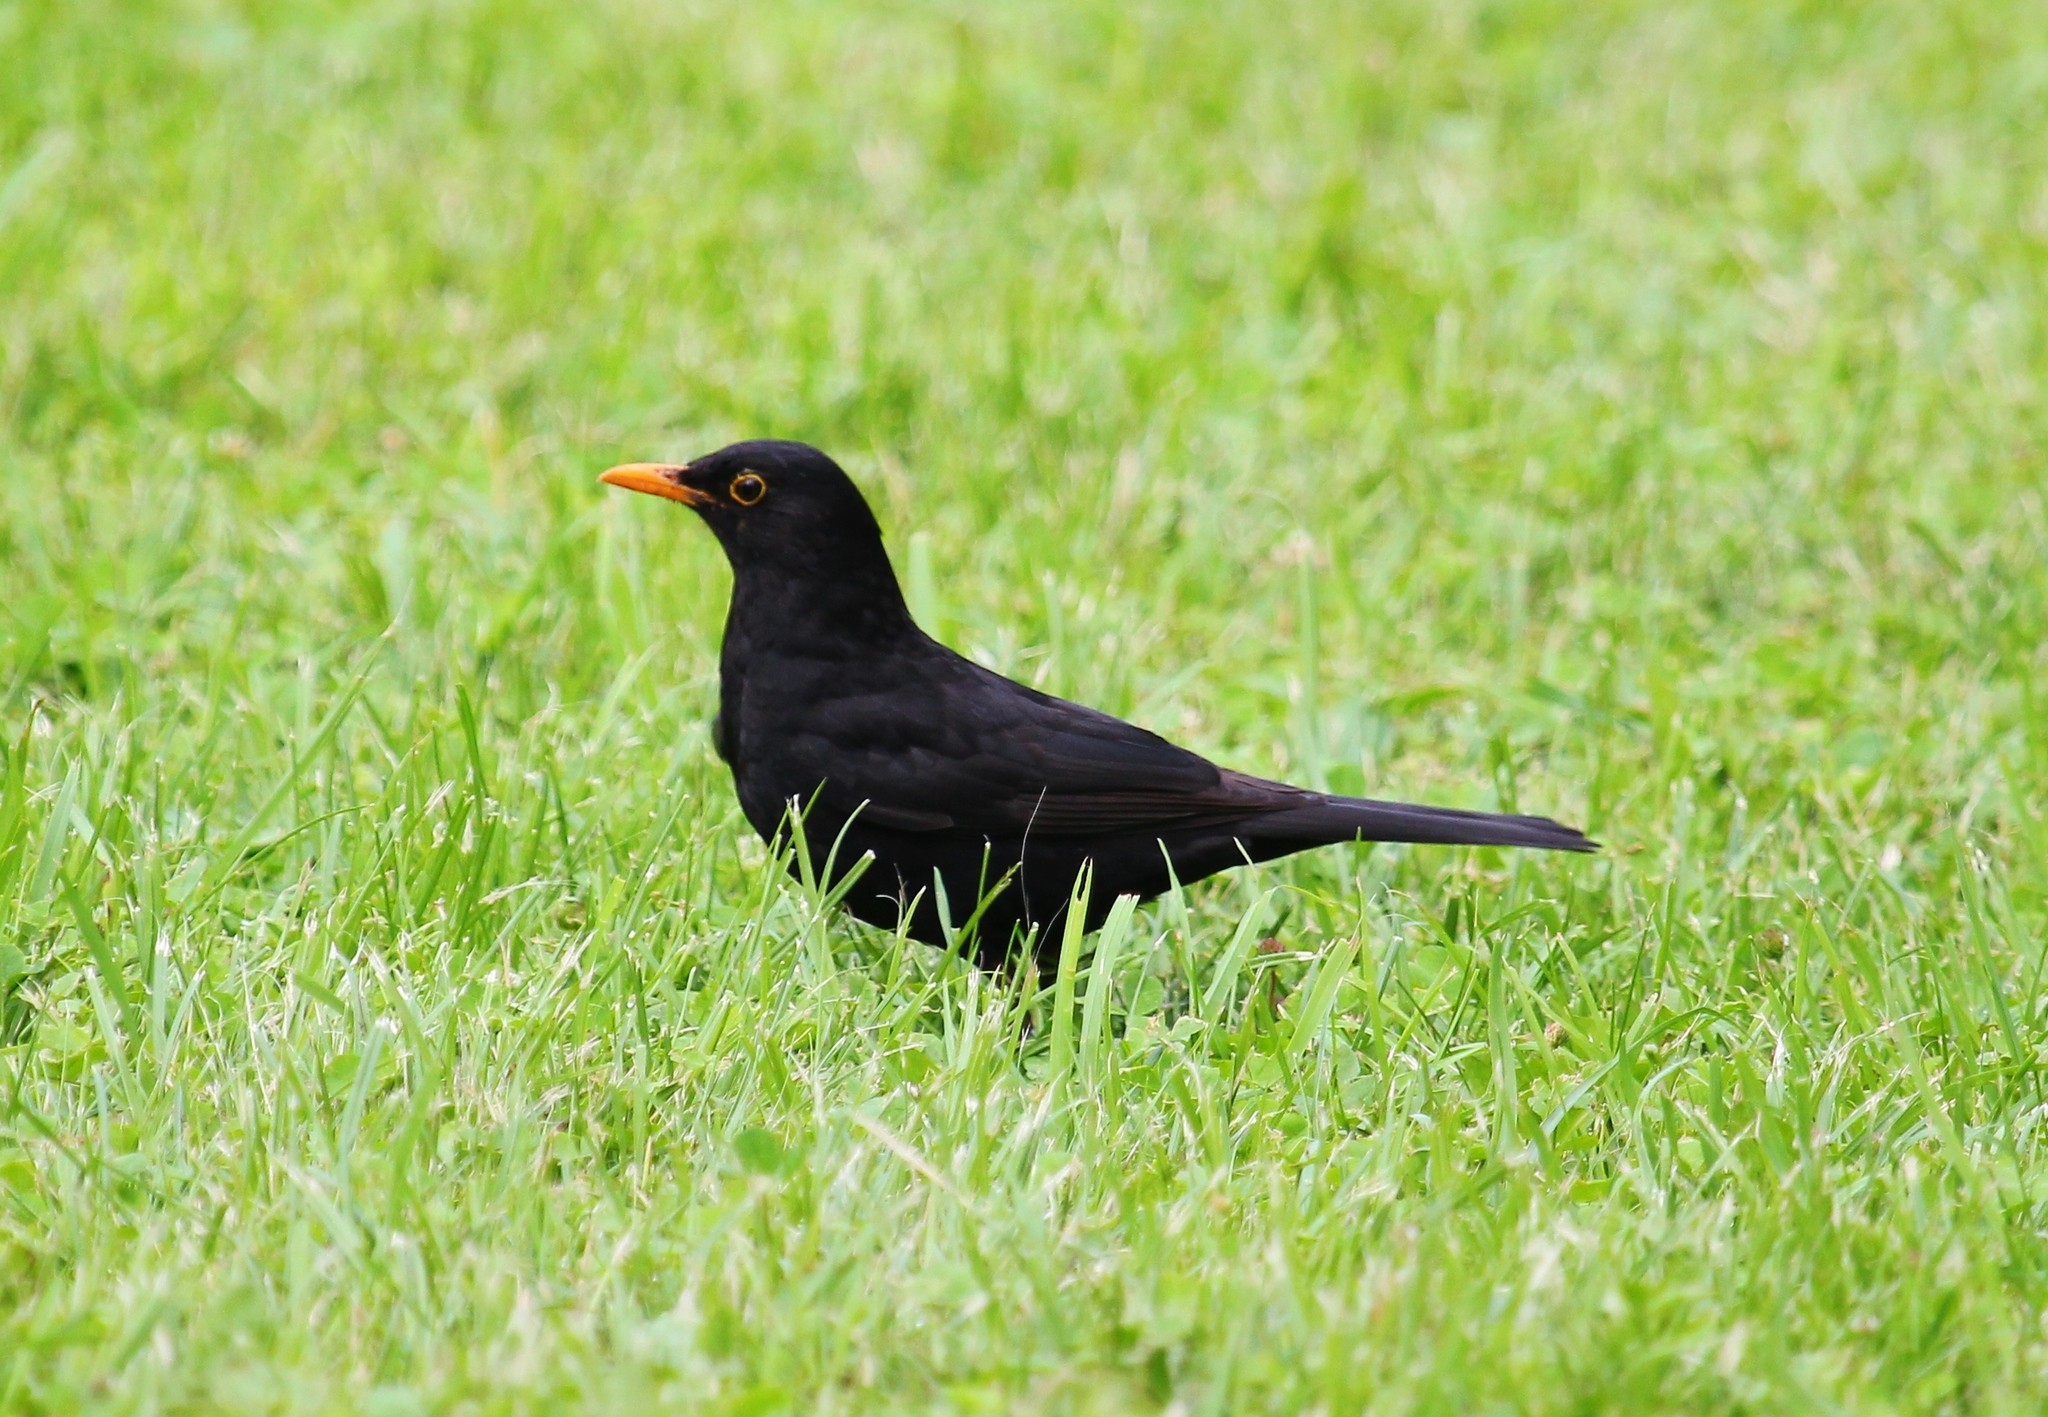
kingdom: Animalia
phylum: Chordata
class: Aves
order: Passeriformes
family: Turdidae
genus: Turdus
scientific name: Turdus merula
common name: Common blackbird
